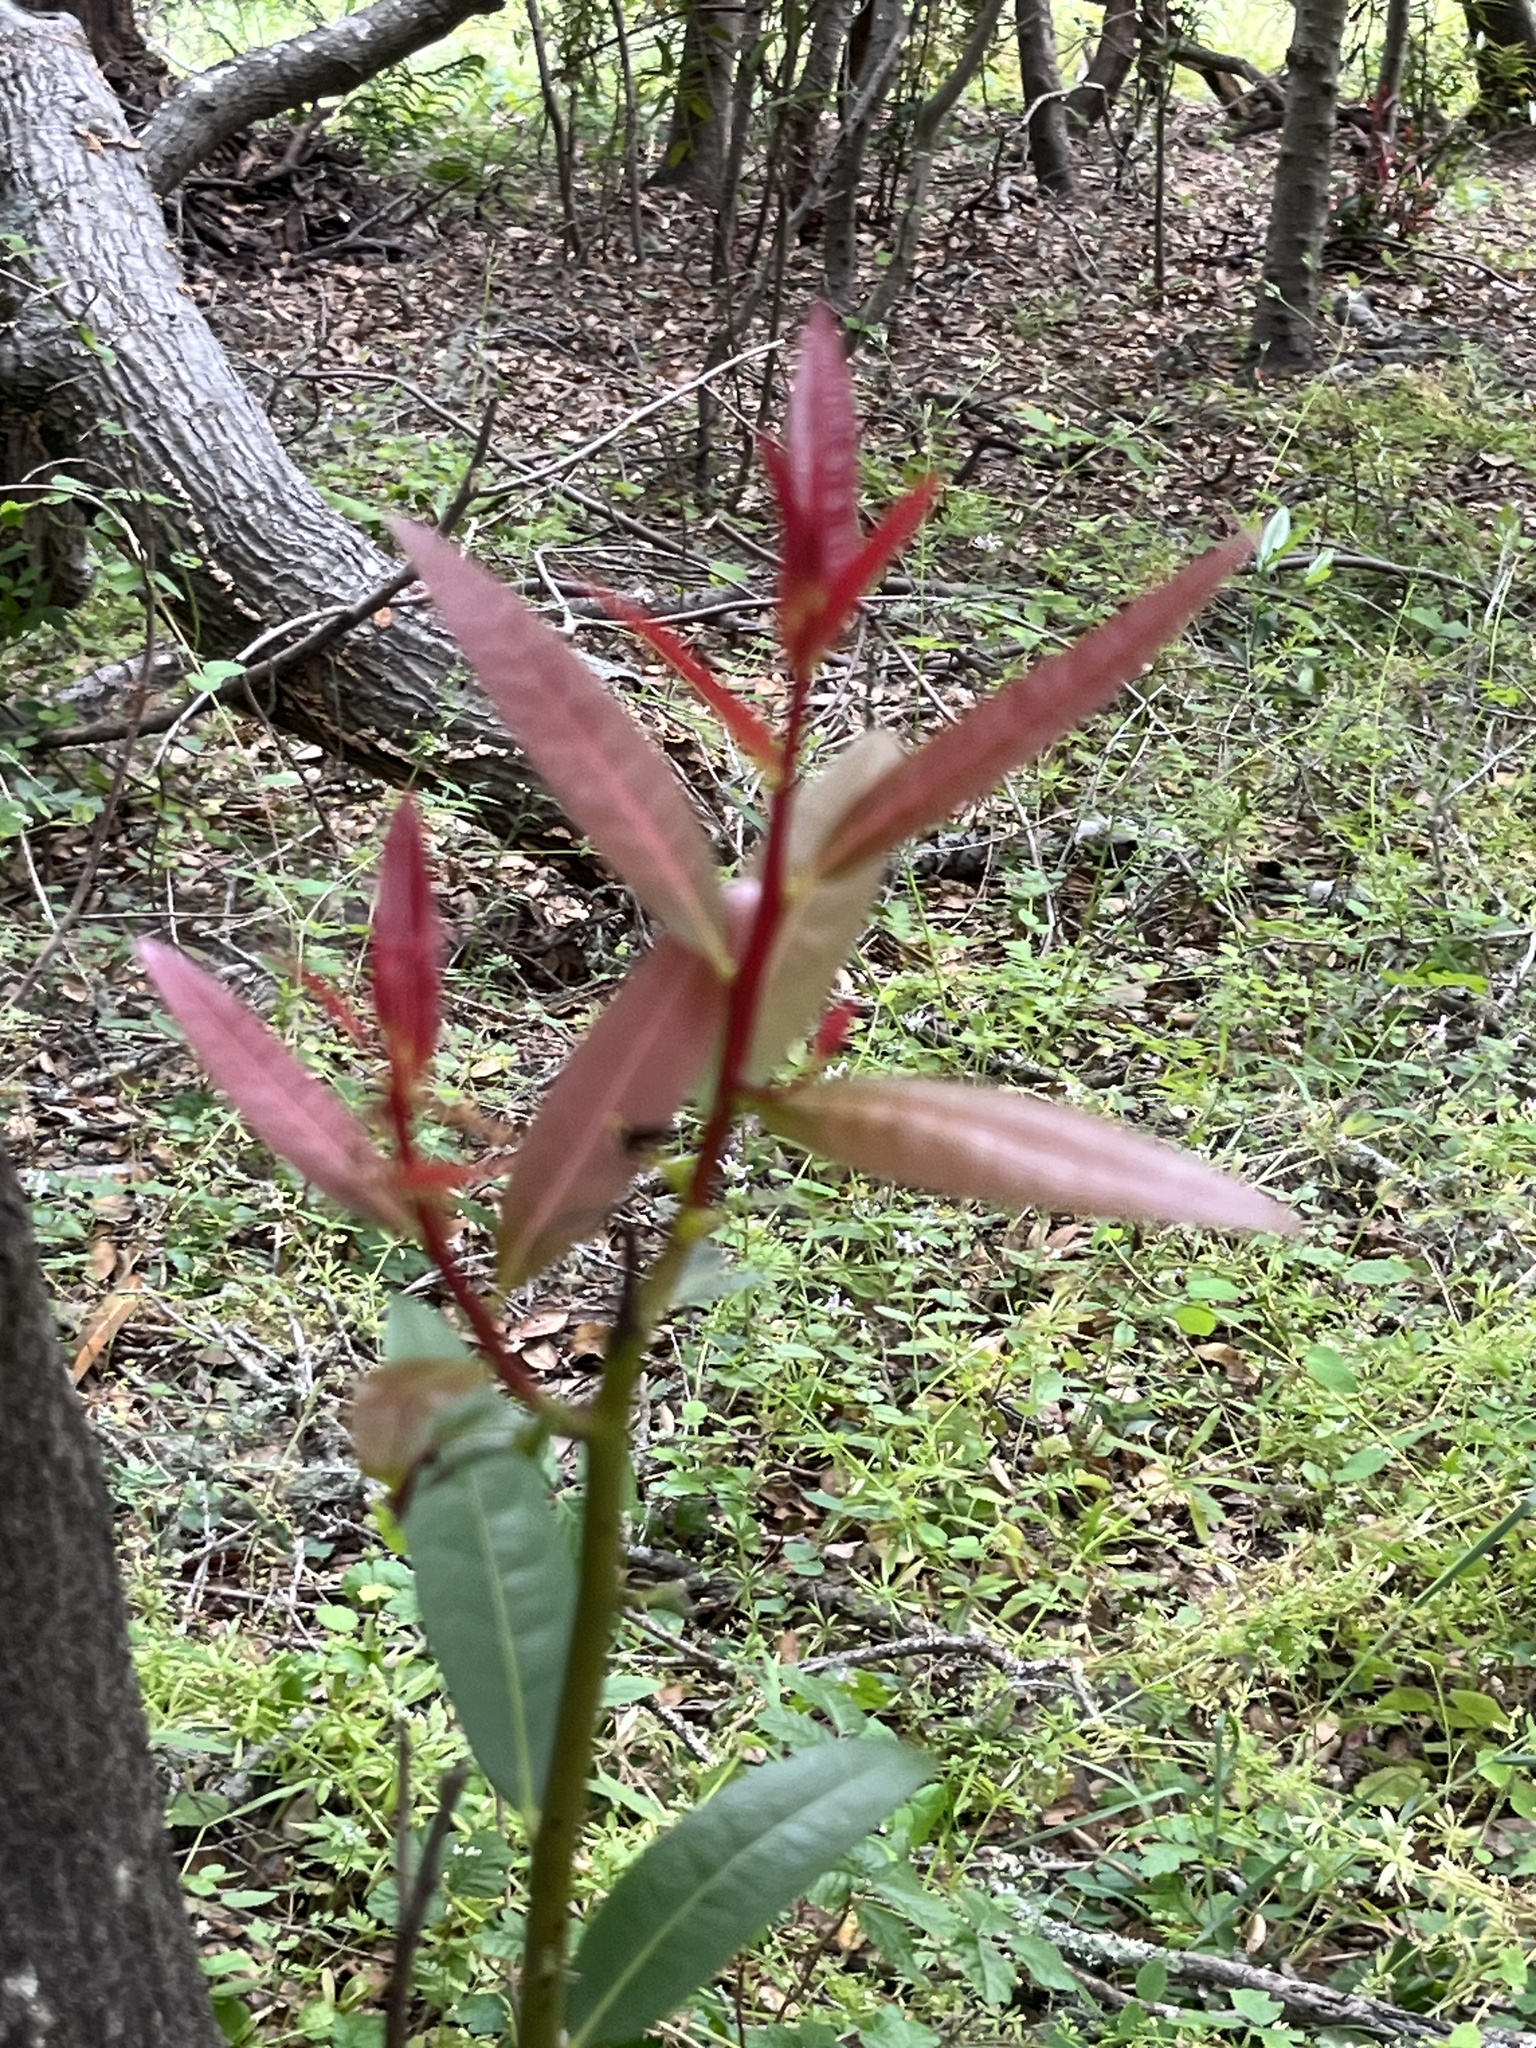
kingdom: Plantae
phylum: Tracheophyta
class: Magnoliopsida
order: Laurales
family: Lauraceae
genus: Umbellularia
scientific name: Umbellularia californica
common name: California bay
